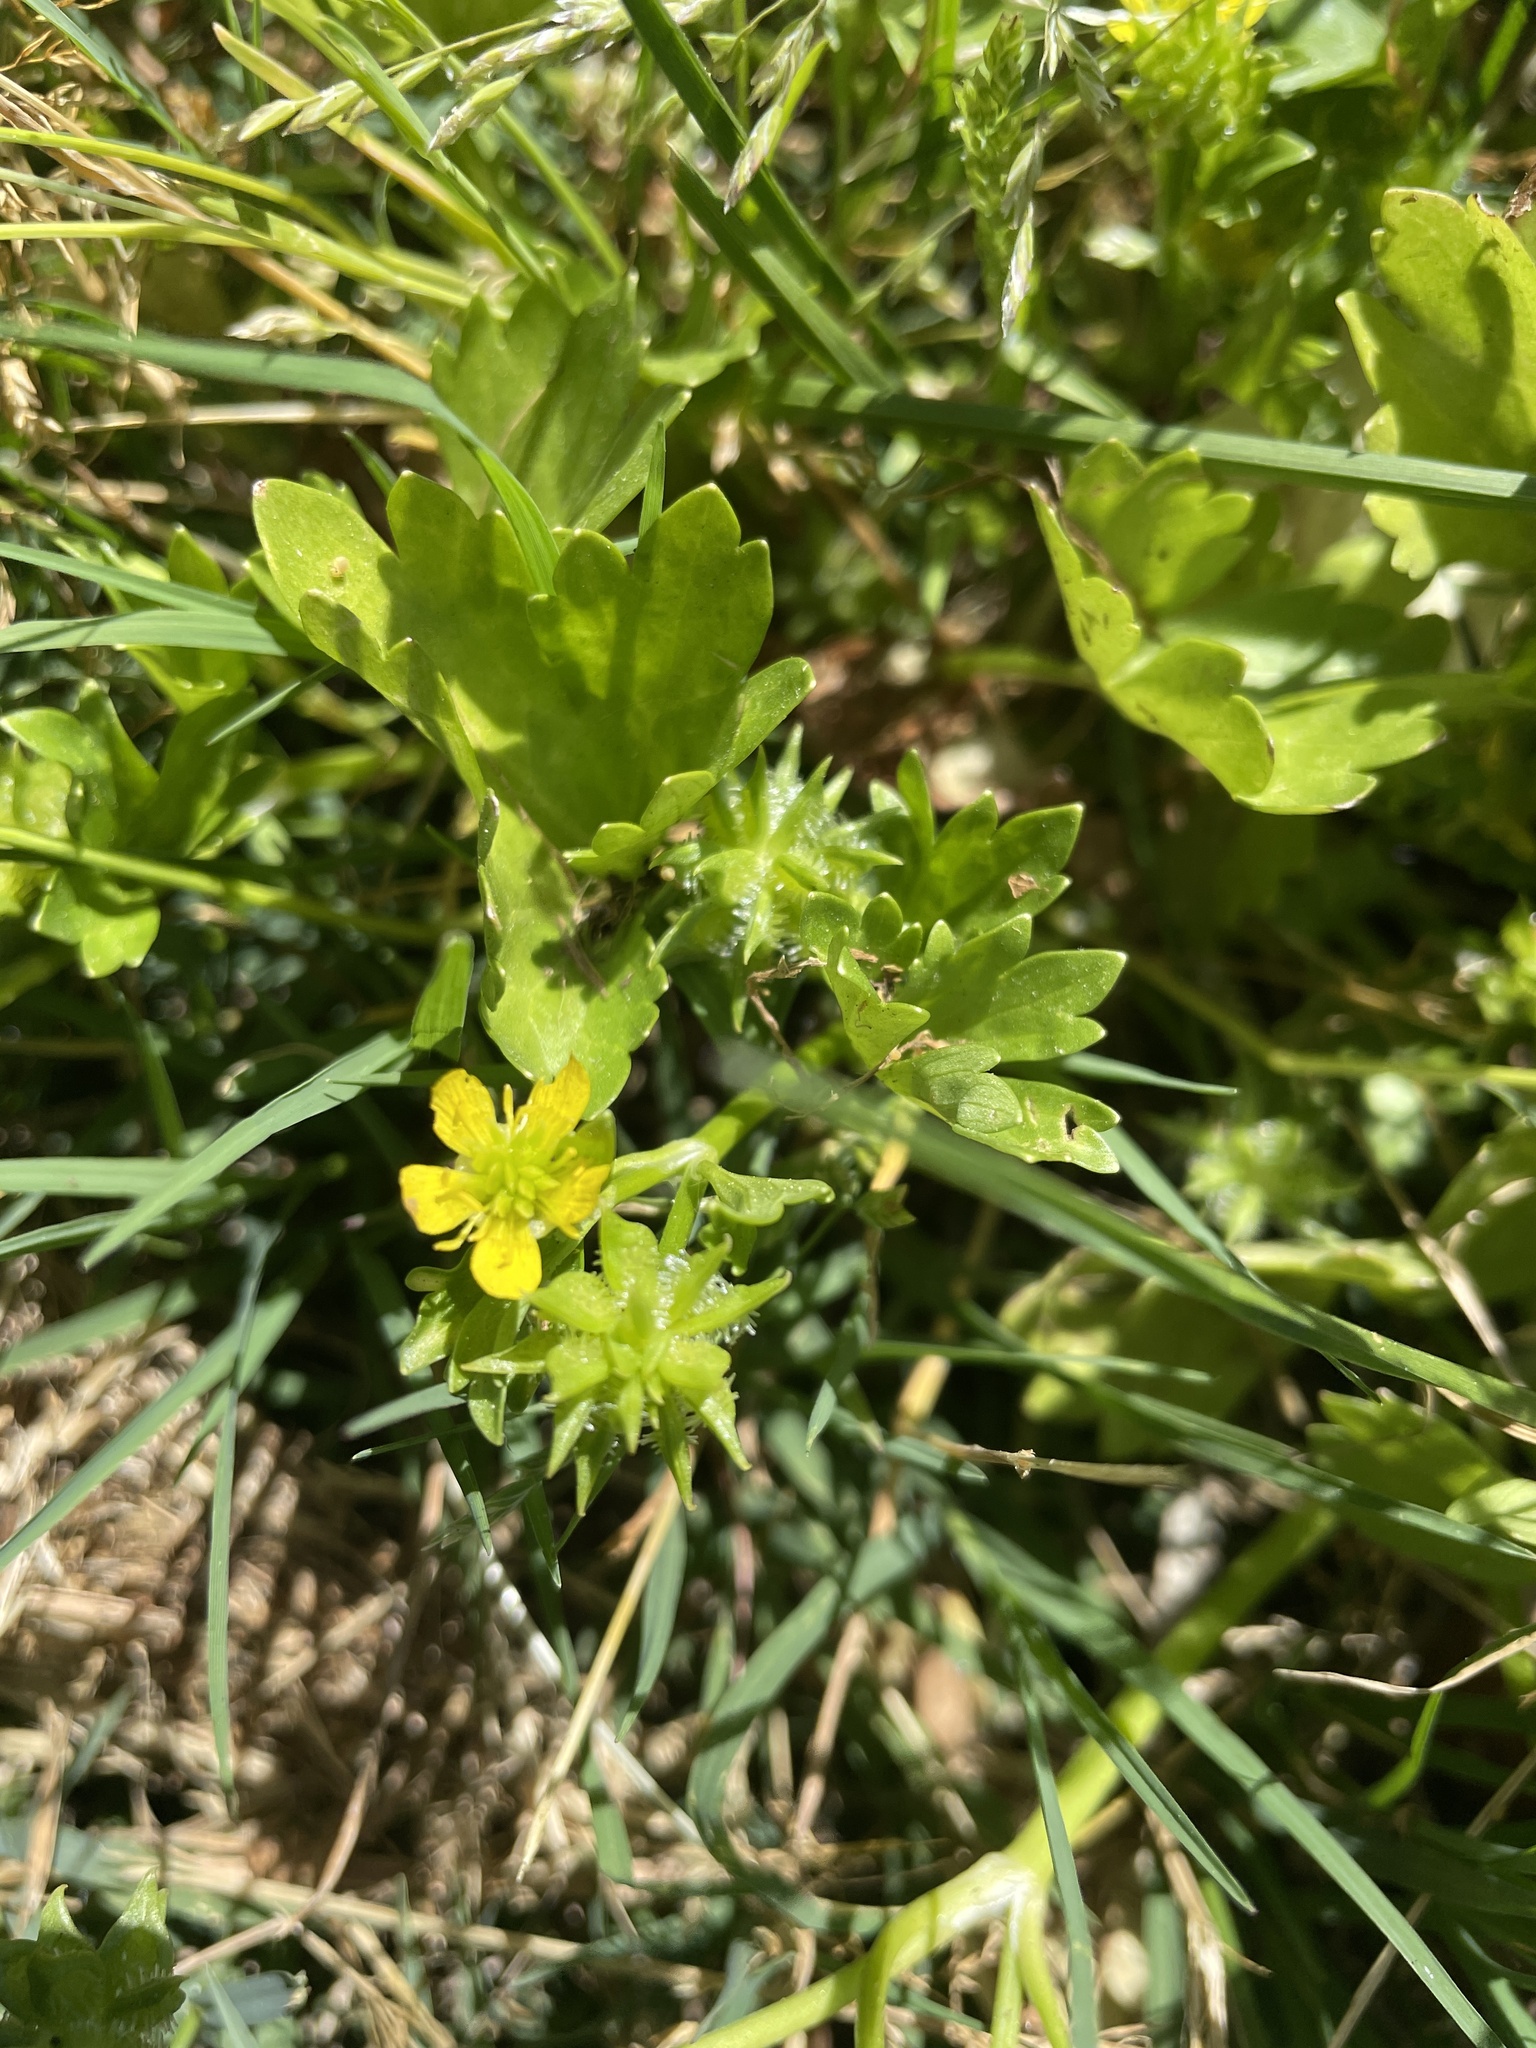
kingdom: Plantae
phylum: Tracheophyta
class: Magnoliopsida
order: Ranunculales
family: Ranunculaceae
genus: Ranunculus
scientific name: Ranunculus muricatus
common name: Rough-fruited buttercup
